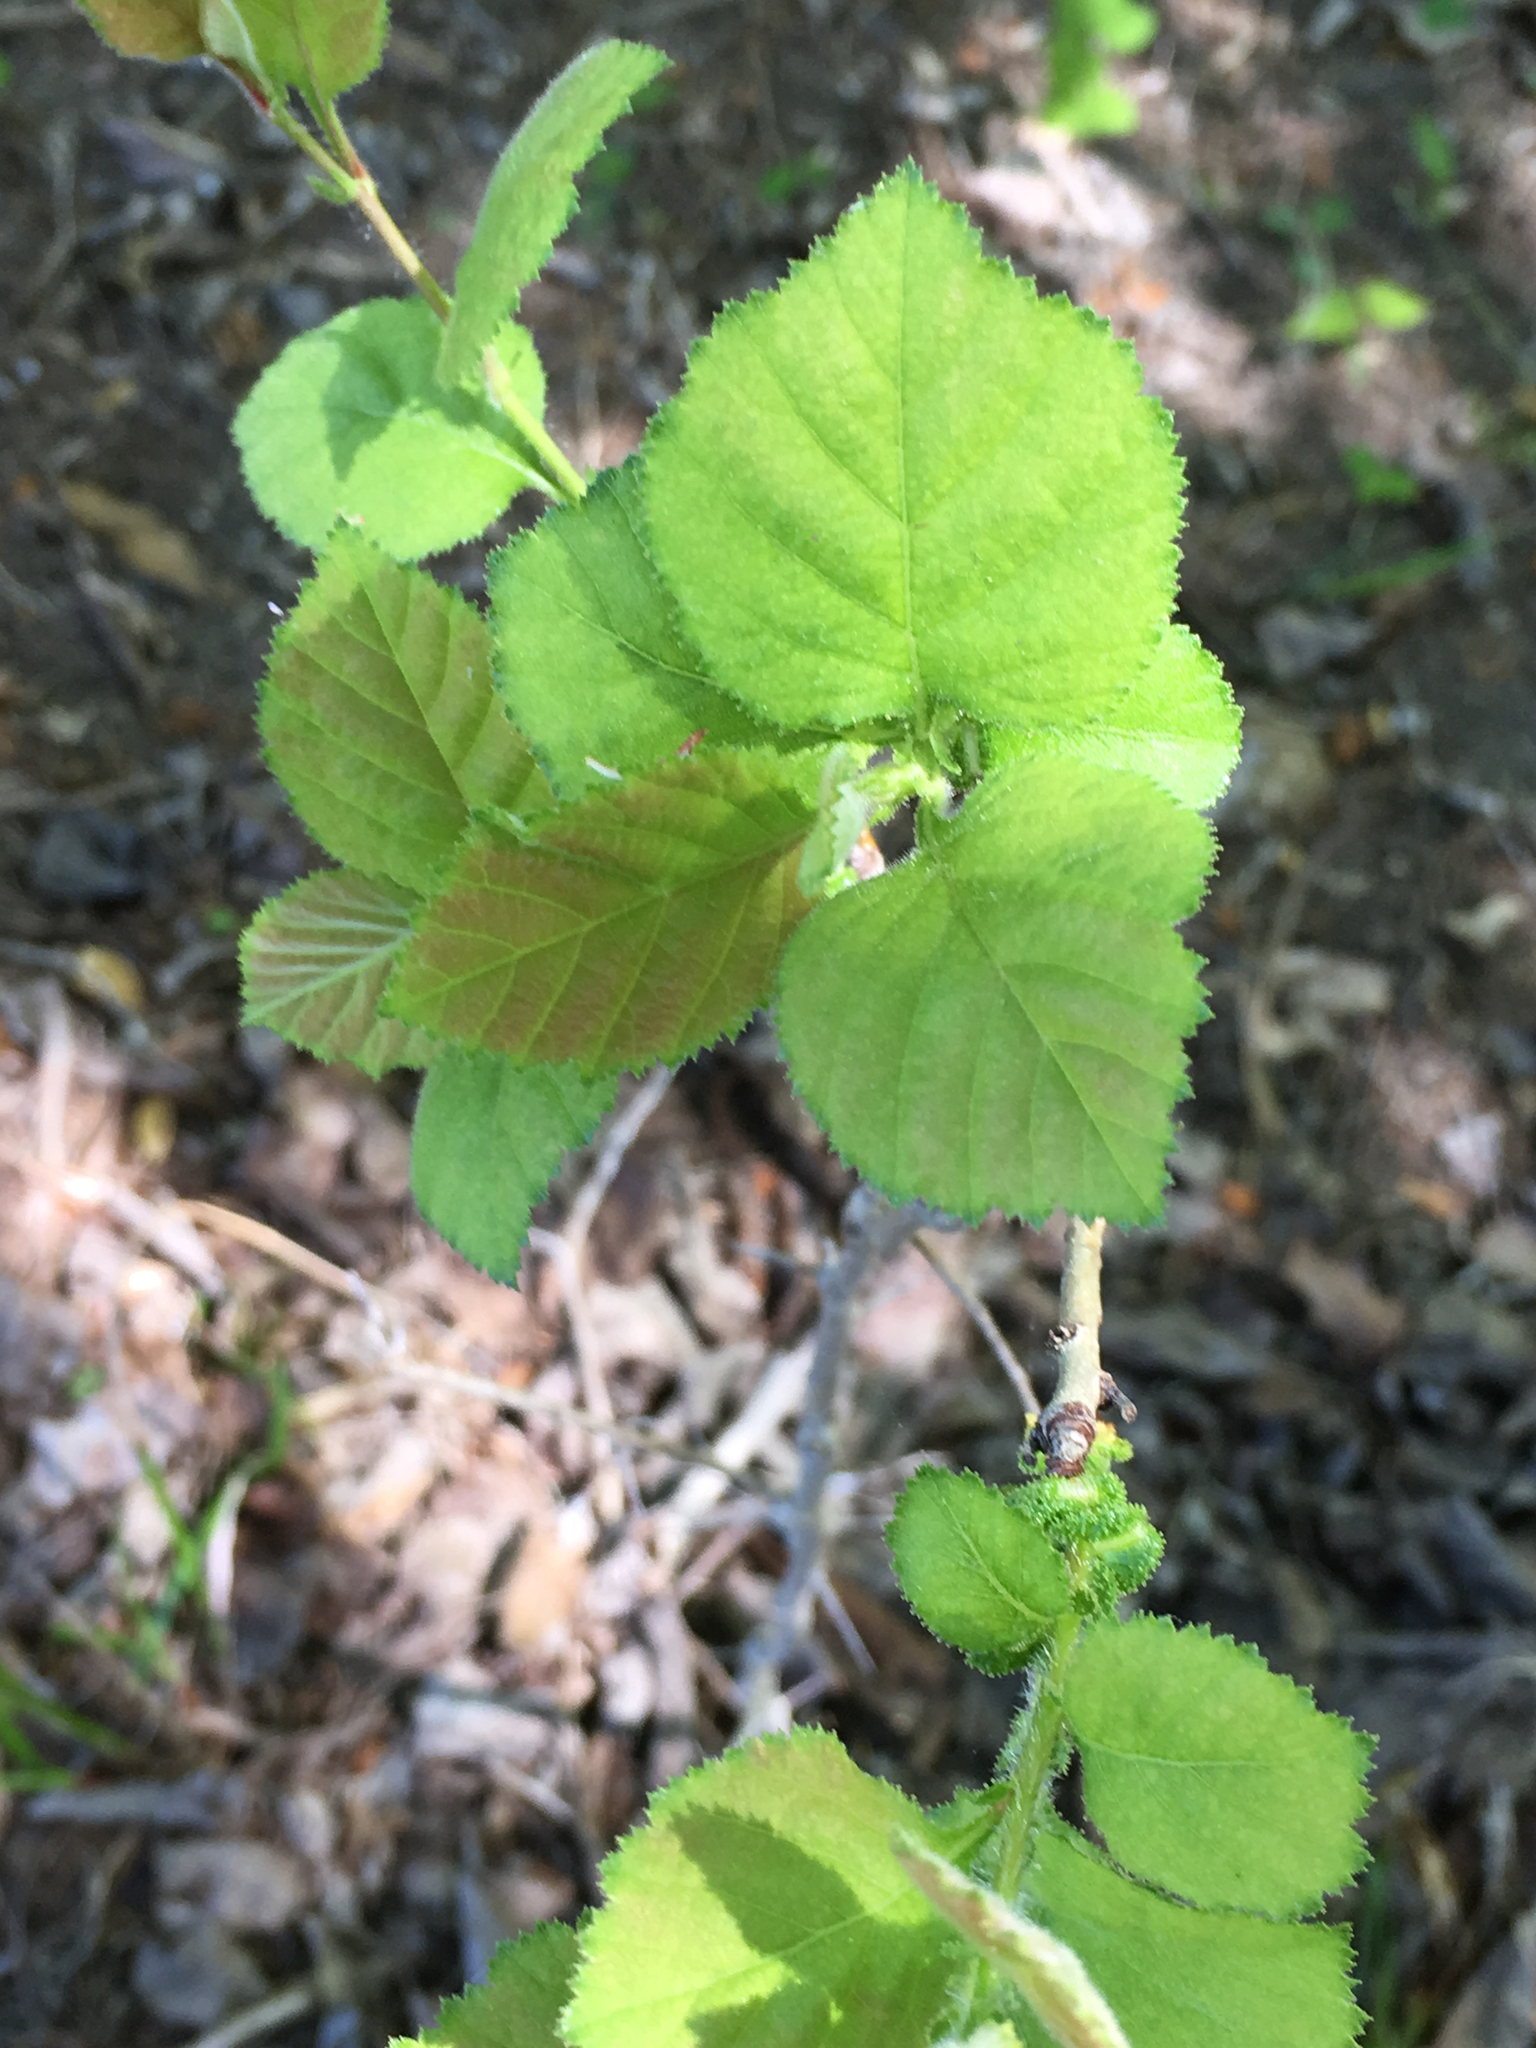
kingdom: Plantae
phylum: Tracheophyta
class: Magnoliopsida
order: Rosales
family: Rosaceae
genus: Crataegus
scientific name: Crataegus triflora
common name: Three-flower hawthorn
